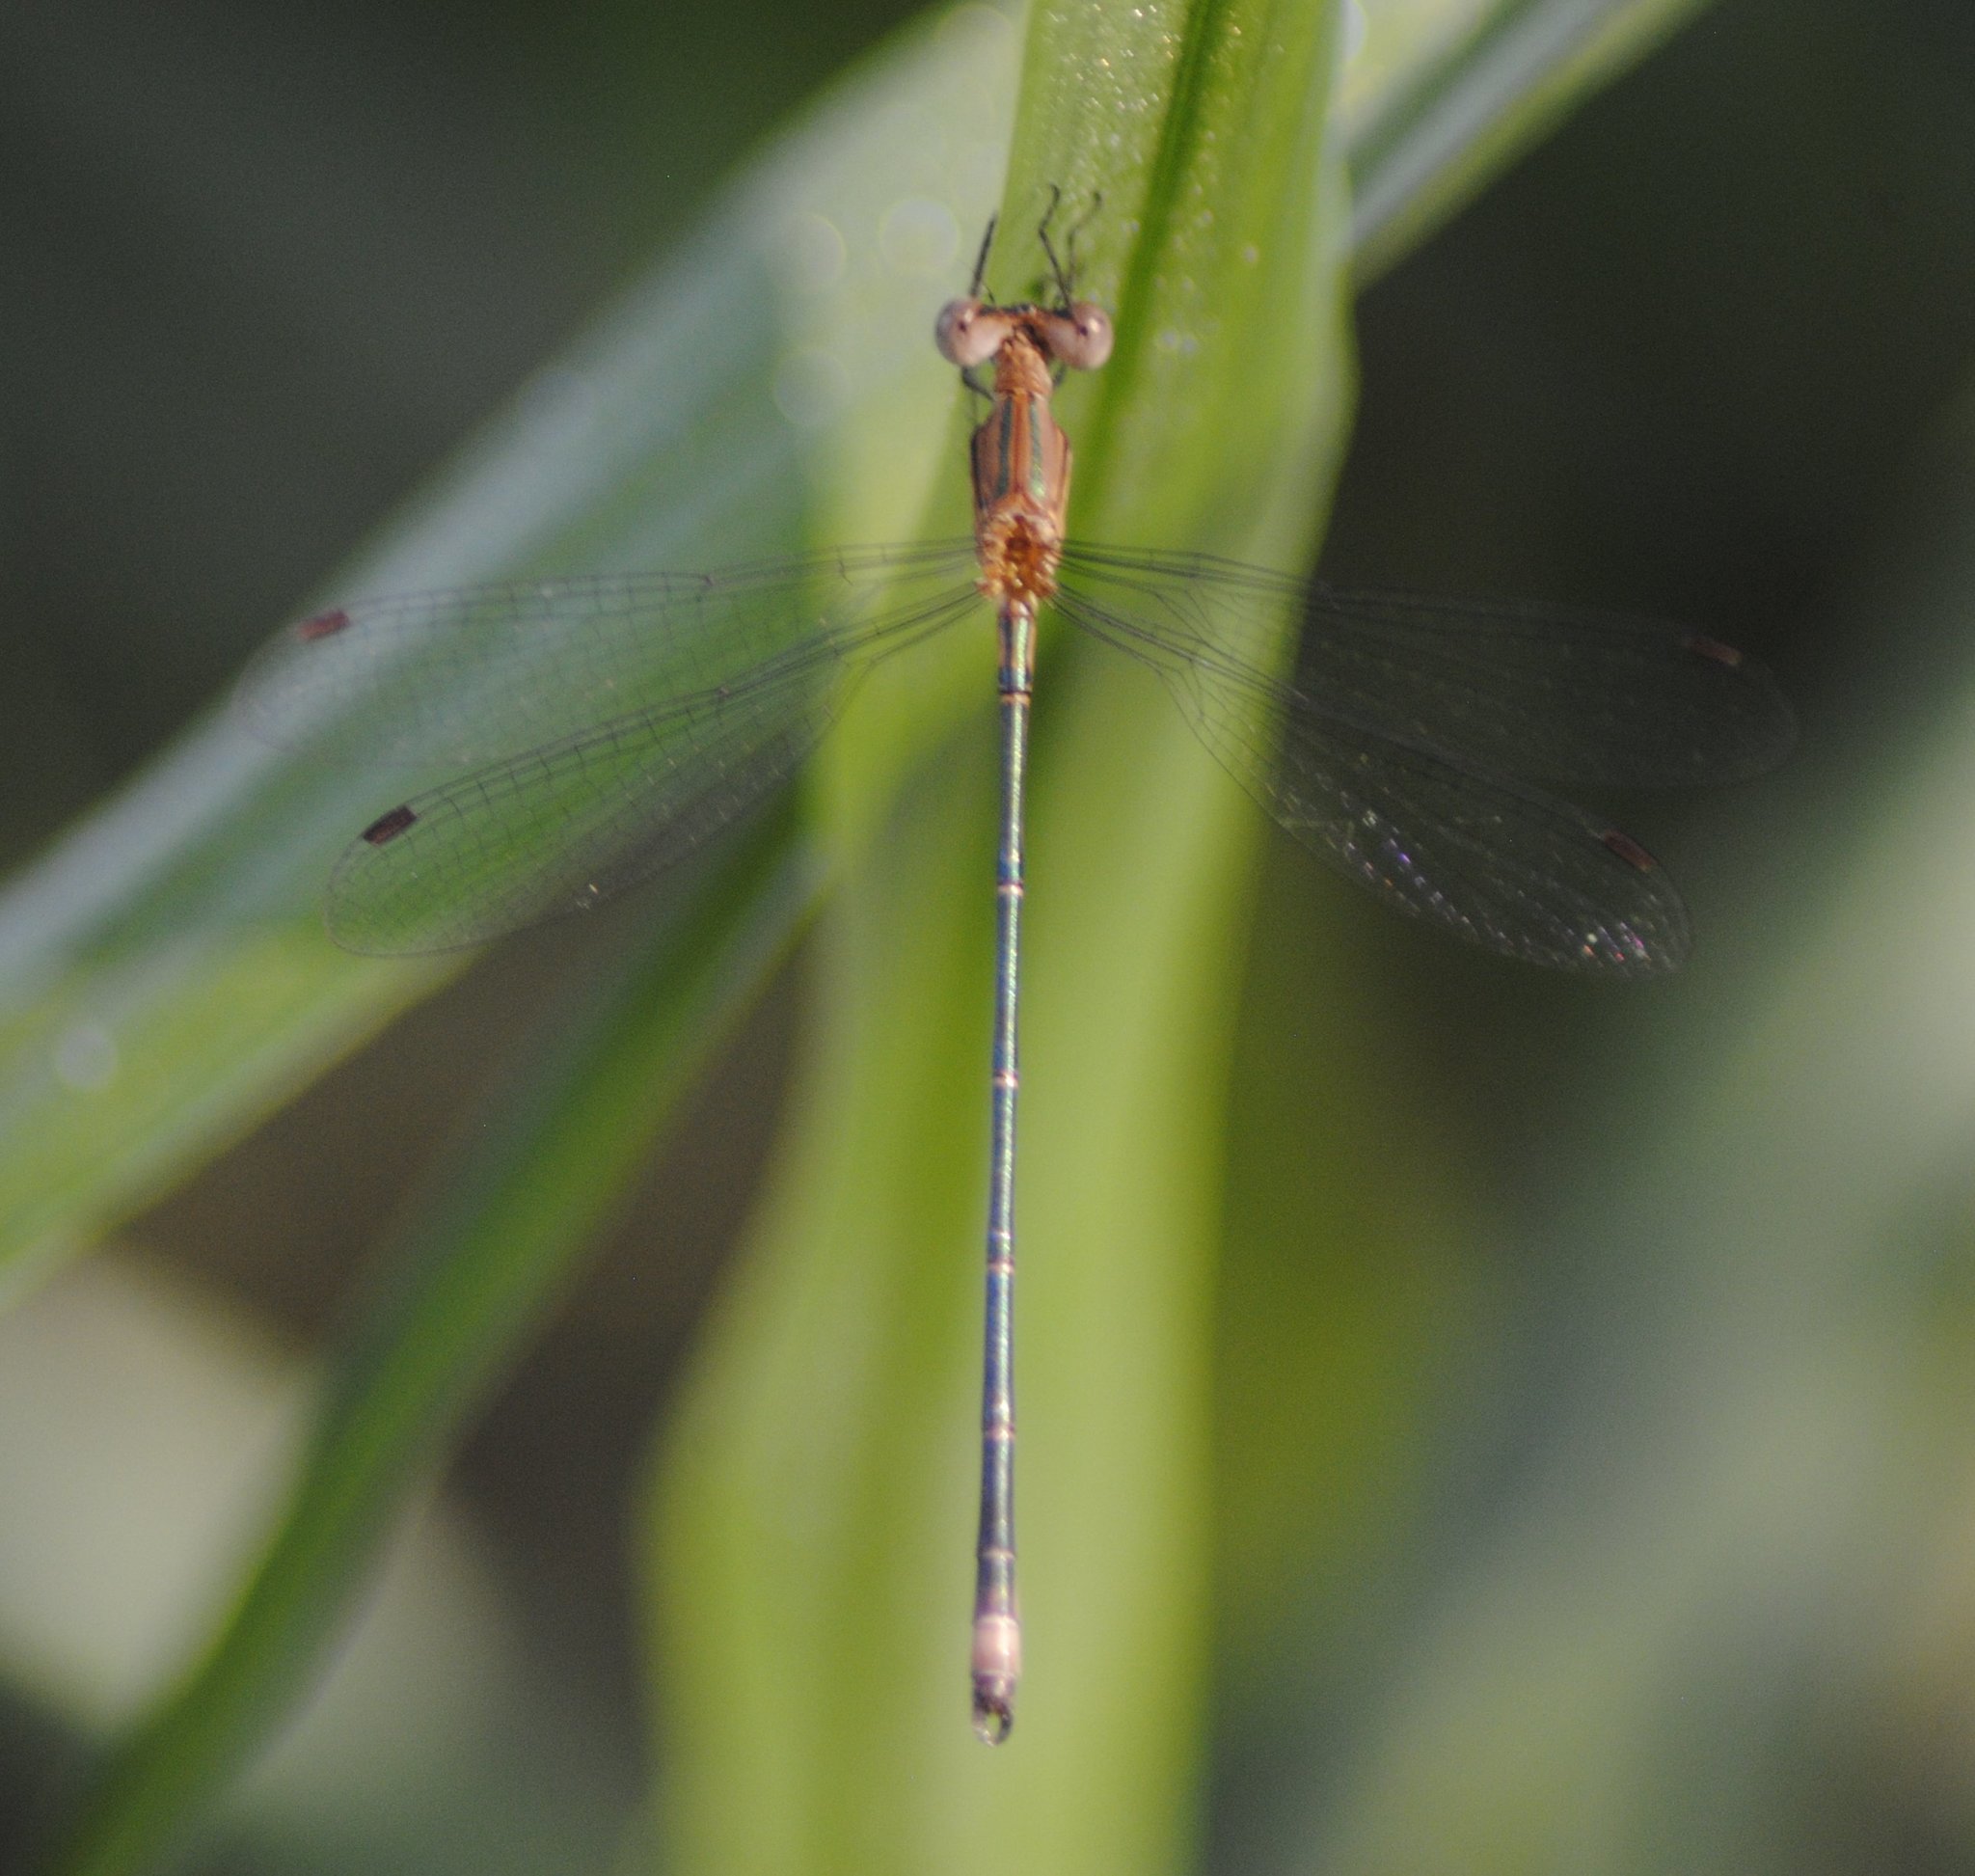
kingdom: Animalia
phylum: Arthropoda
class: Insecta
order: Odonata
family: Lestidae
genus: Lestes
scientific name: Lestes forficula
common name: Rainpool spreadwing
